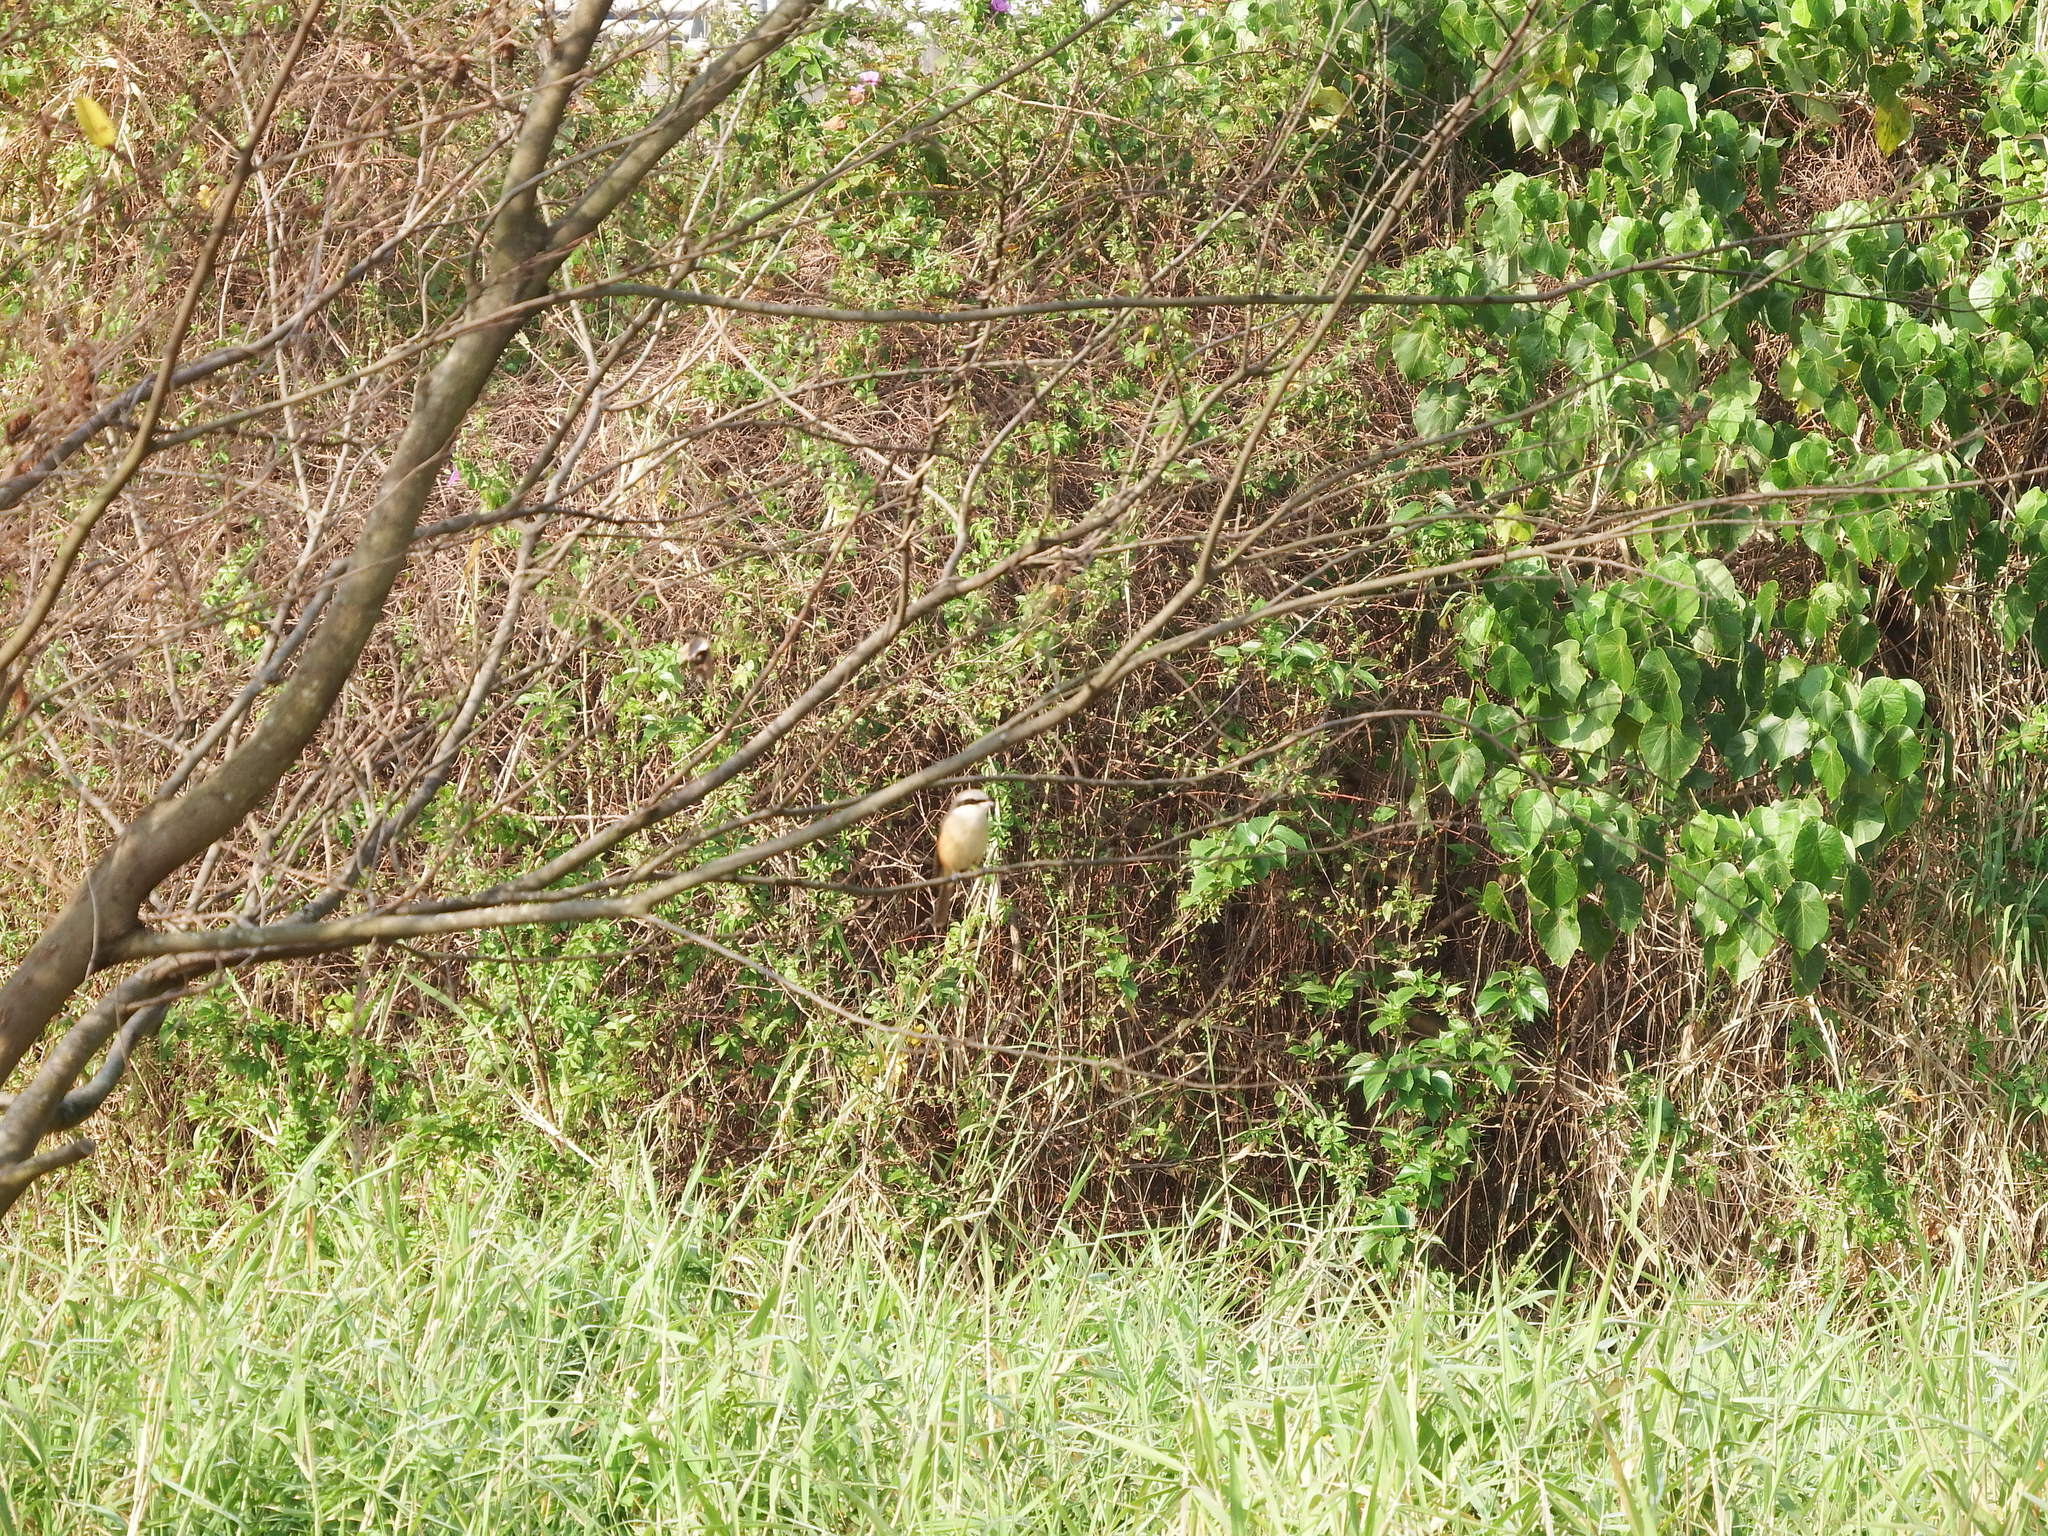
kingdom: Animalia
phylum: Chordata
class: Aves
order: Passeriformes
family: Laniidae
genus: Lanius
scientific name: Lanius cristatus
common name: Brown shrike
